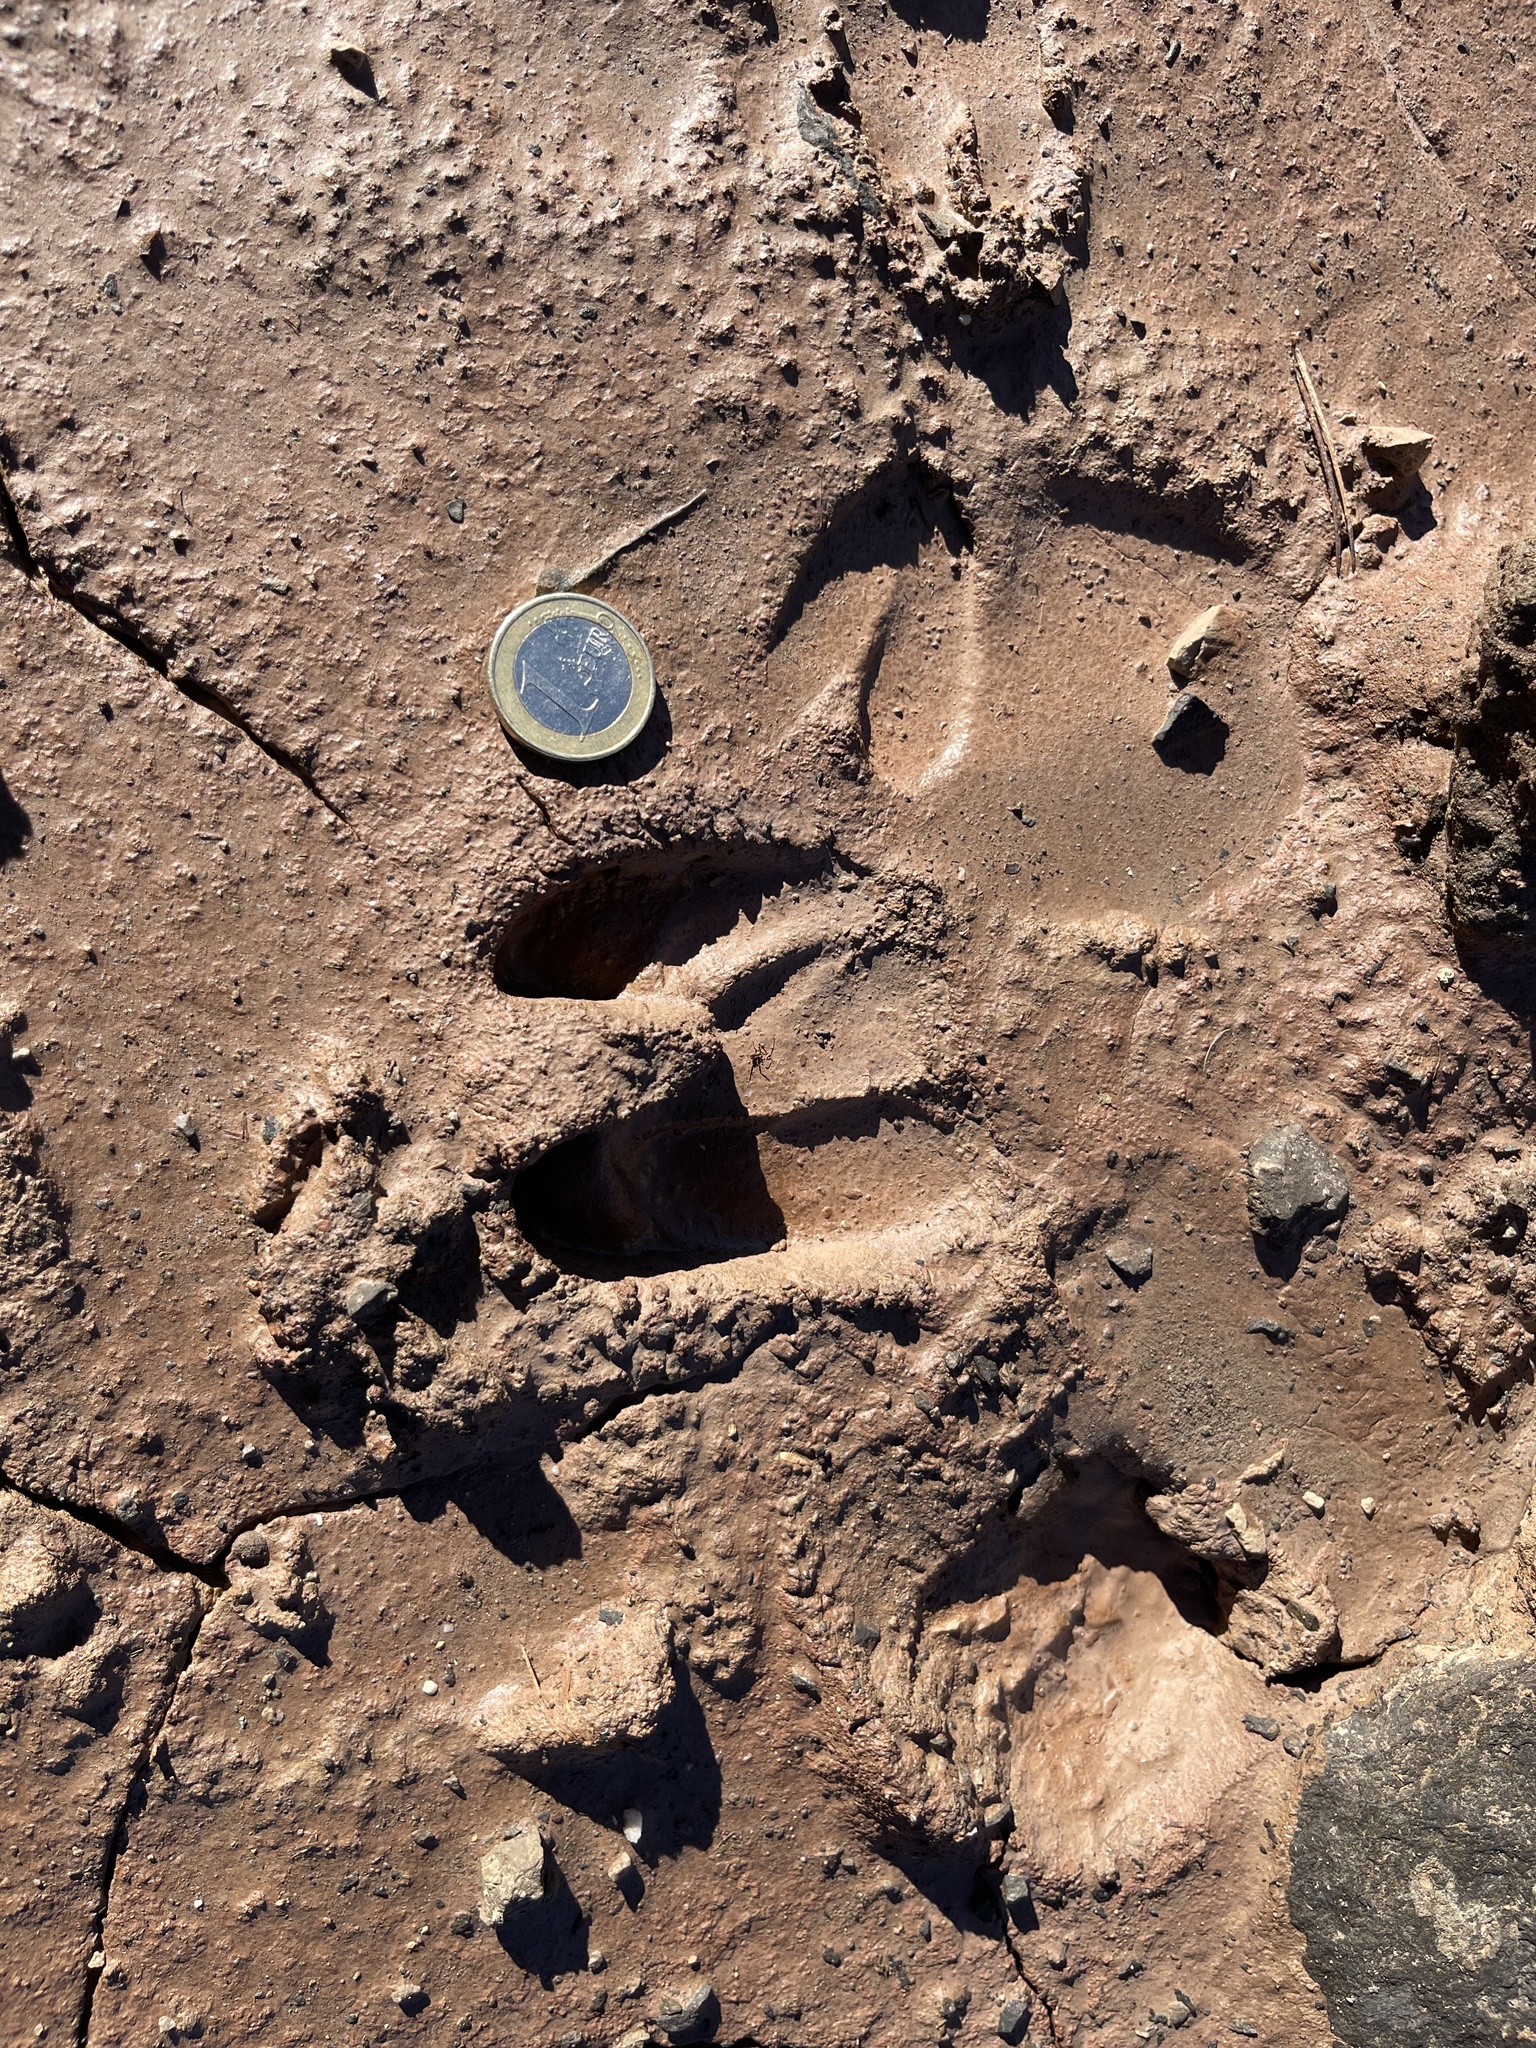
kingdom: Animalia
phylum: Chordata
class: Mammalia
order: Artiodactyla
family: Suidae
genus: Sus
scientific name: Sus scrofa
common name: Wild boar
